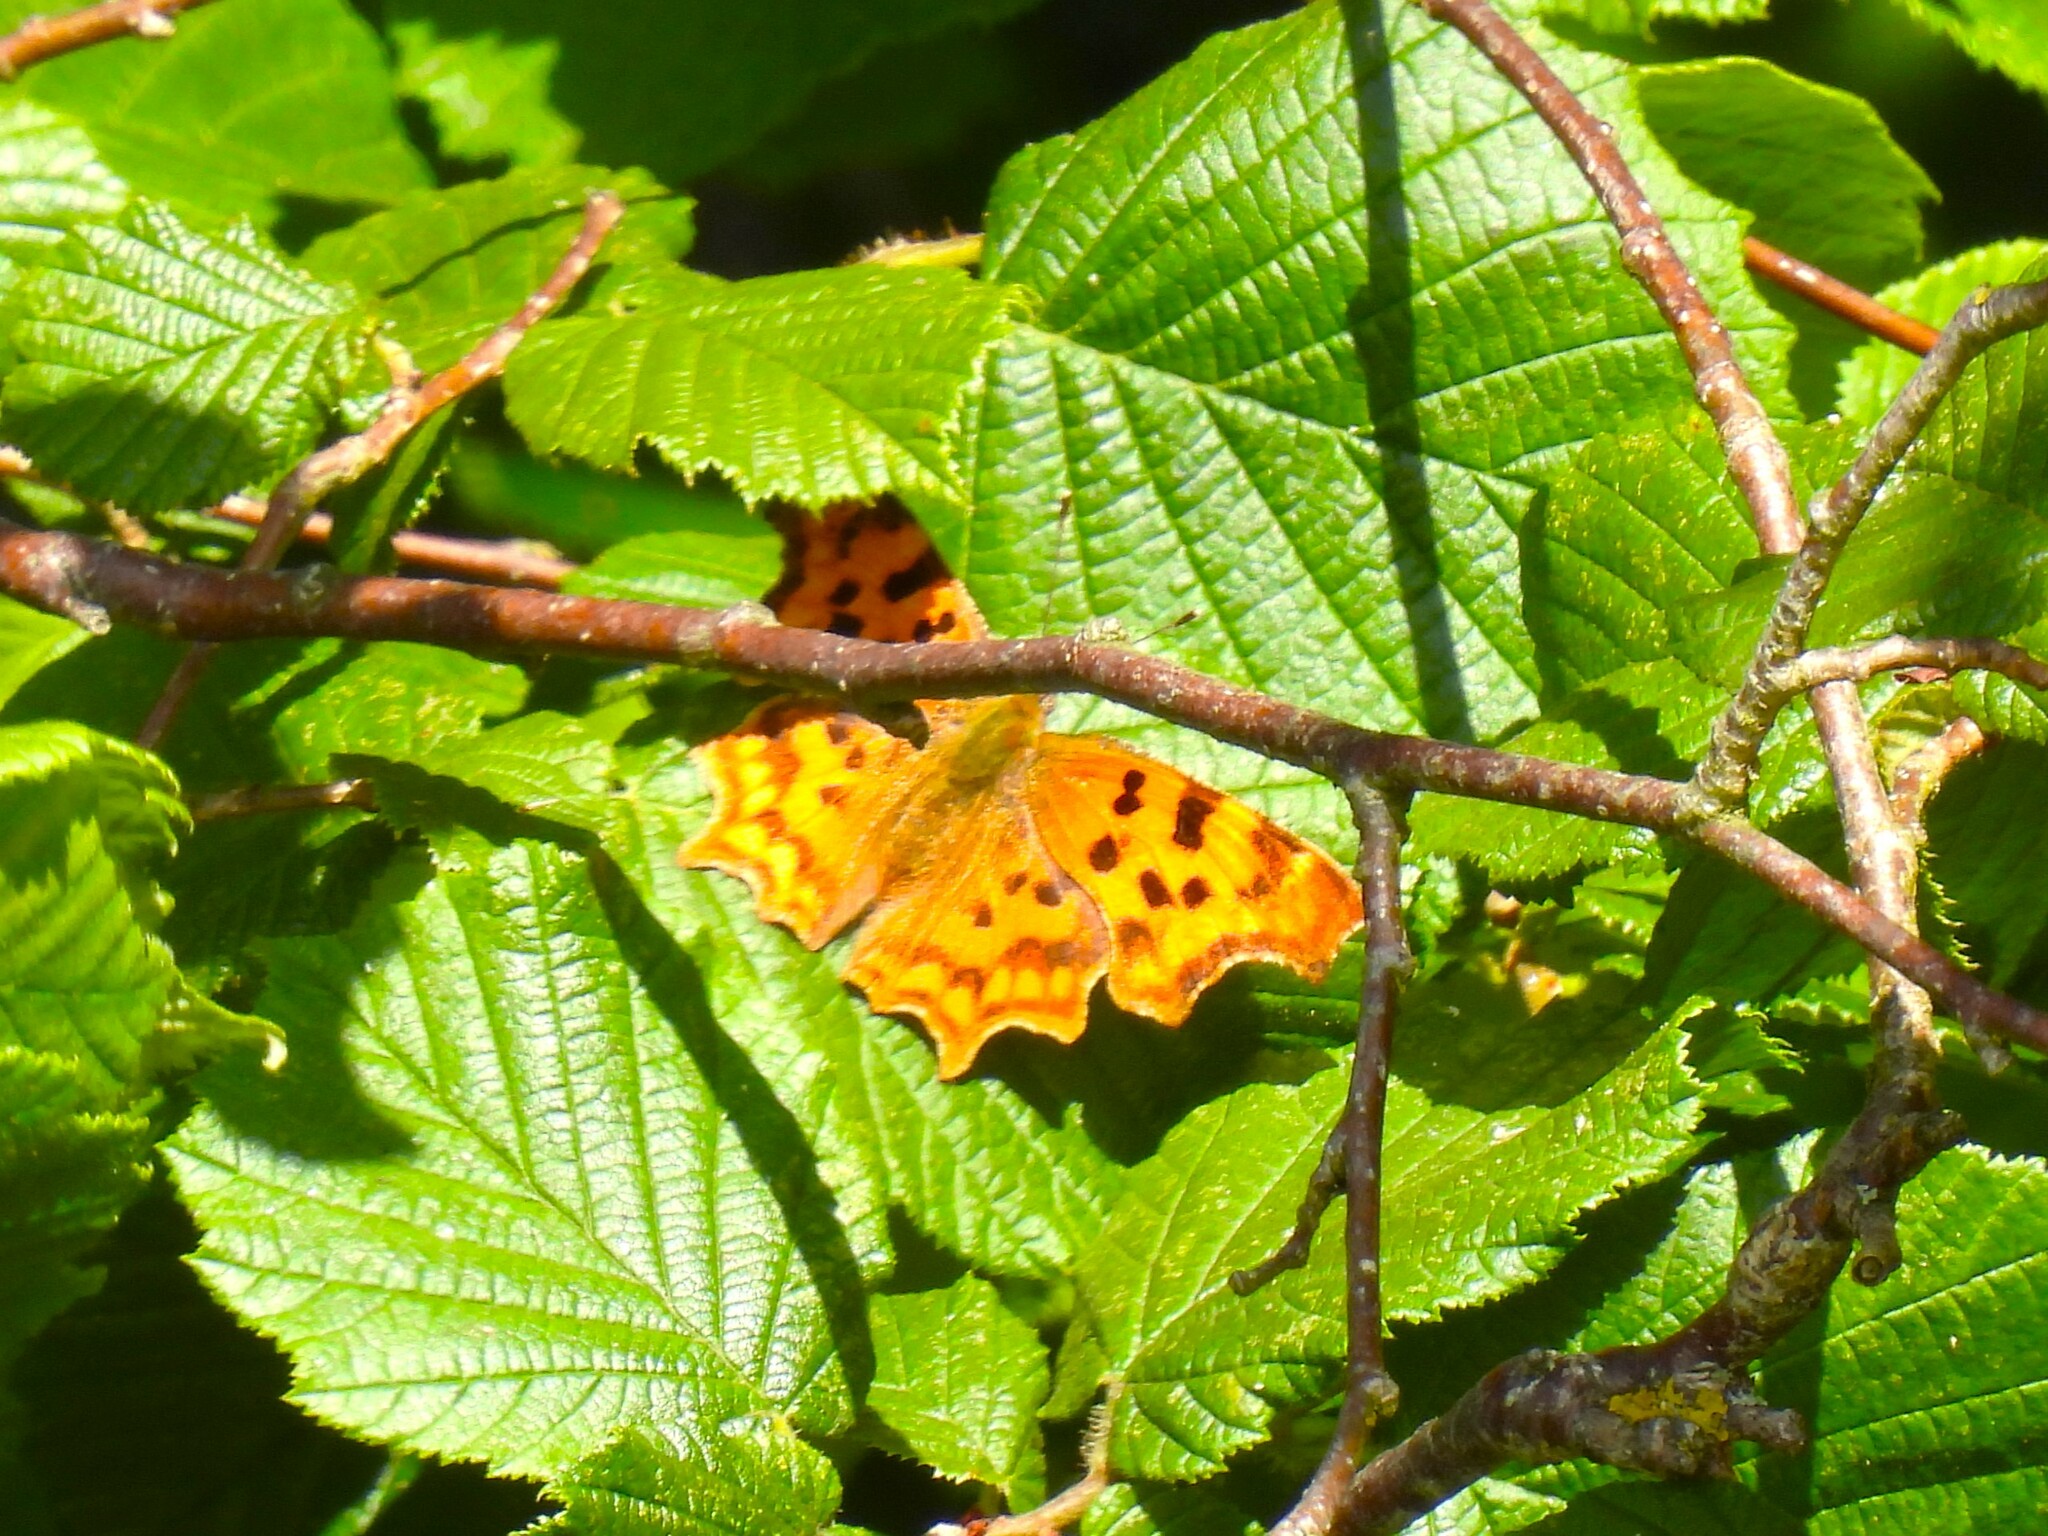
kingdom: Animalia
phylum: Arthropoda
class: Insecta
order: Lepidoptera
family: Nymphalidae
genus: Polygonia
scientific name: Polygonia c-album
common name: Comma
